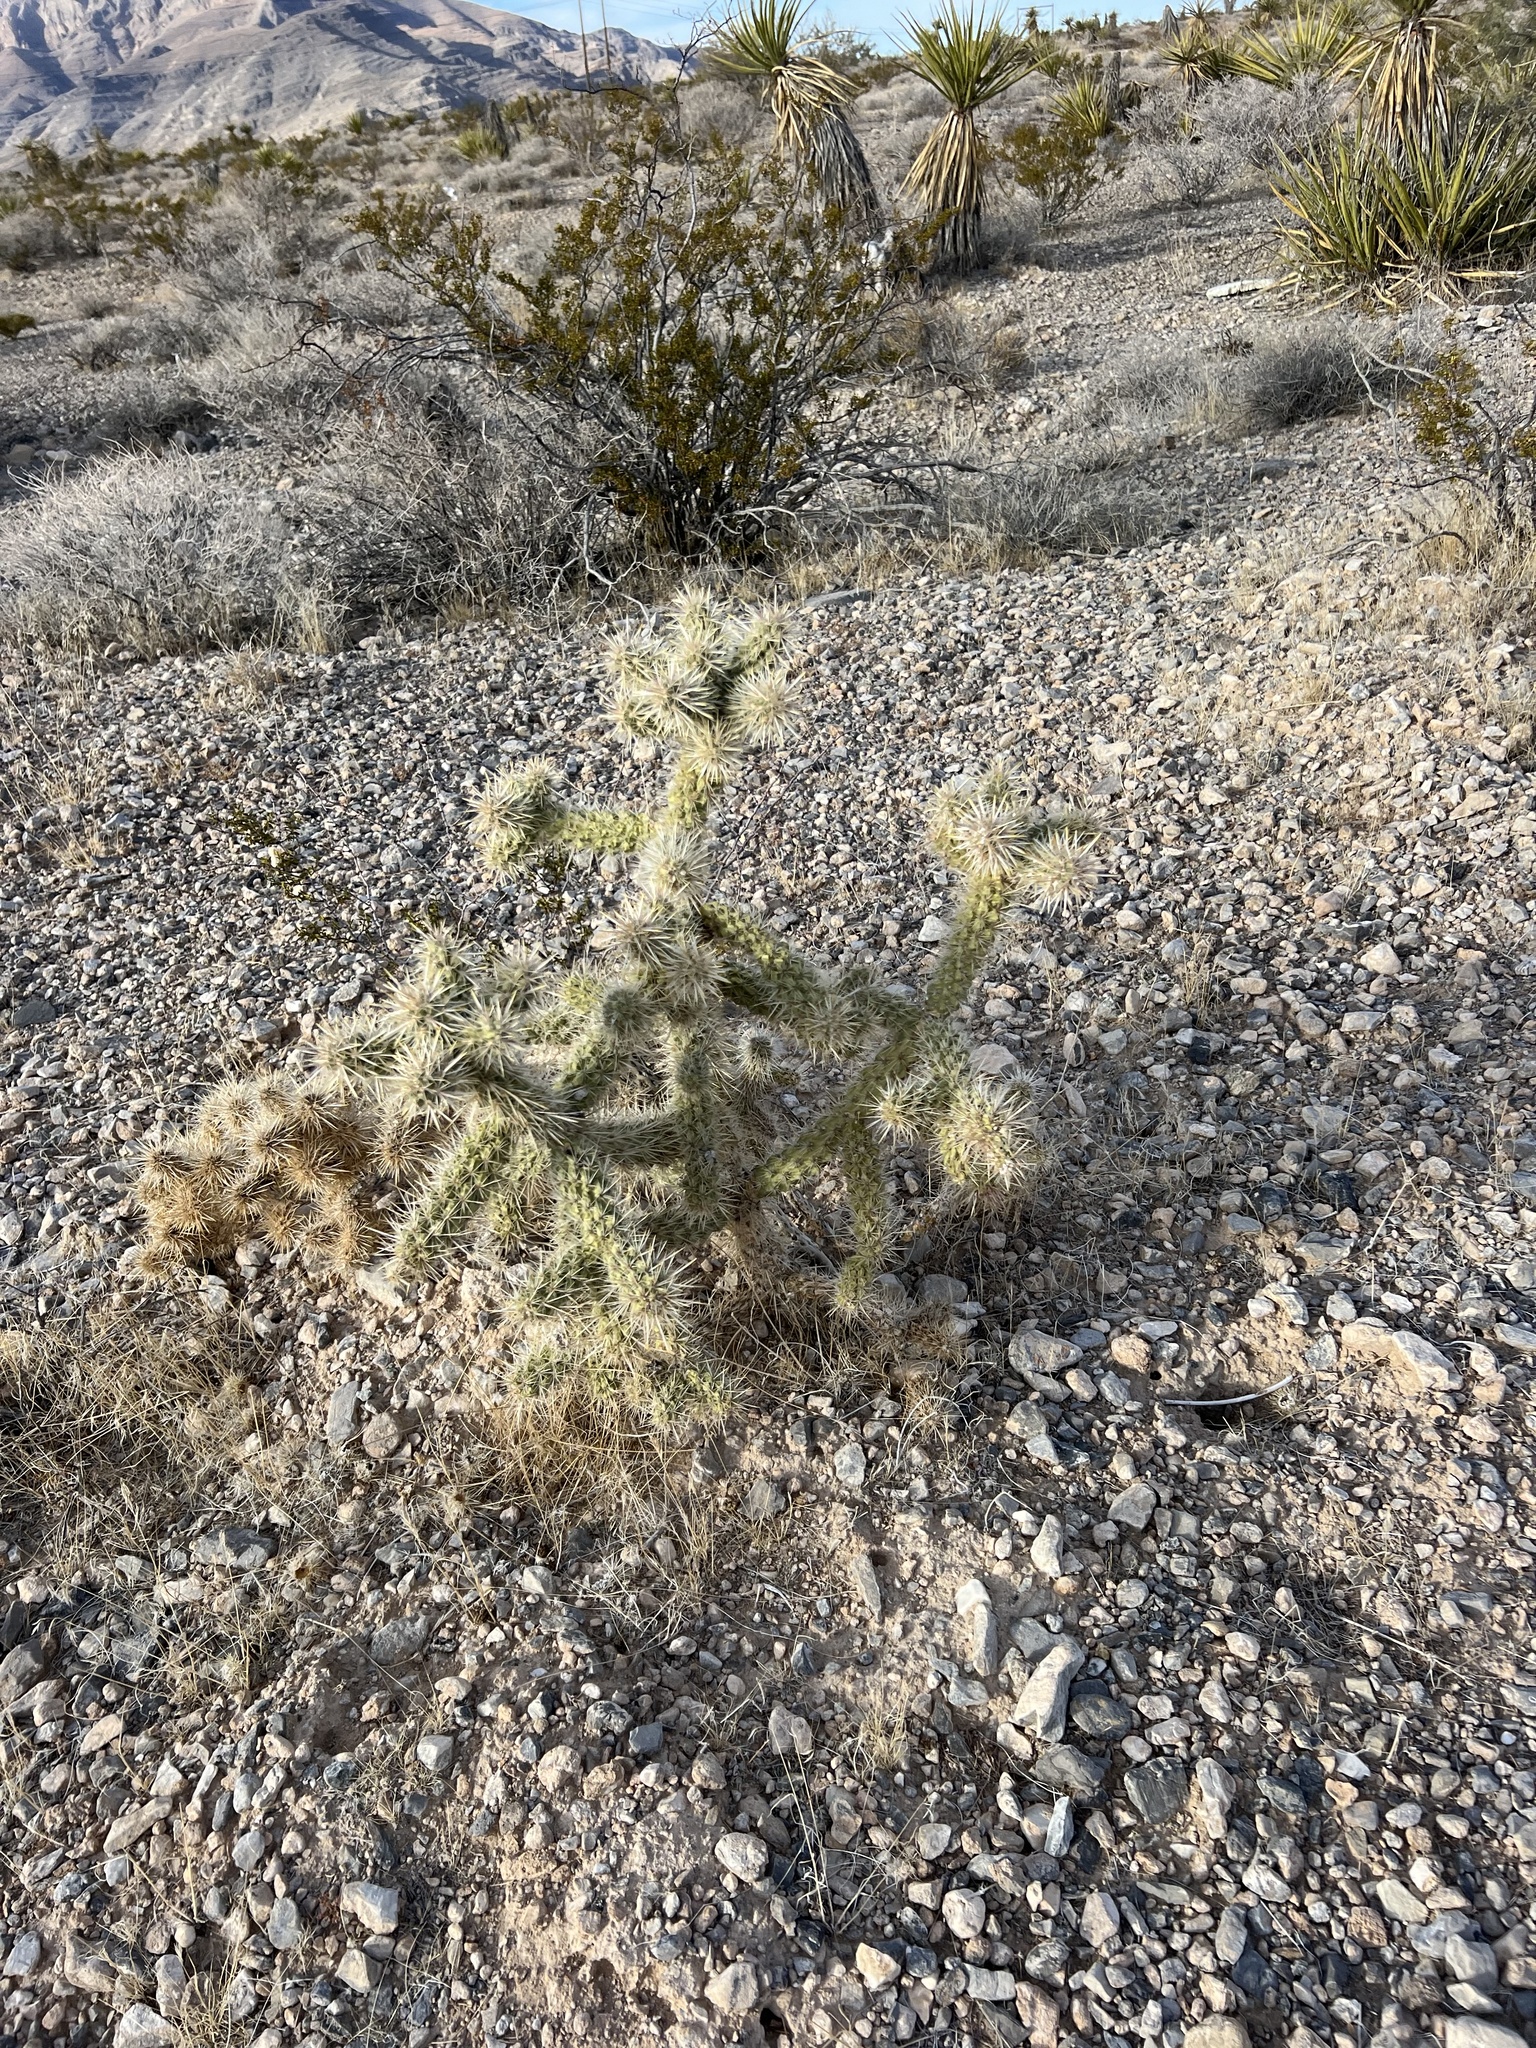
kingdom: Plantae
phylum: Tracheophyta
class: Magnoliopsida
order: Caryophyllales
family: Cactaceae
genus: Cylindropuntia
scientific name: Cylindropuntia echinocarpa
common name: Ground cholla
